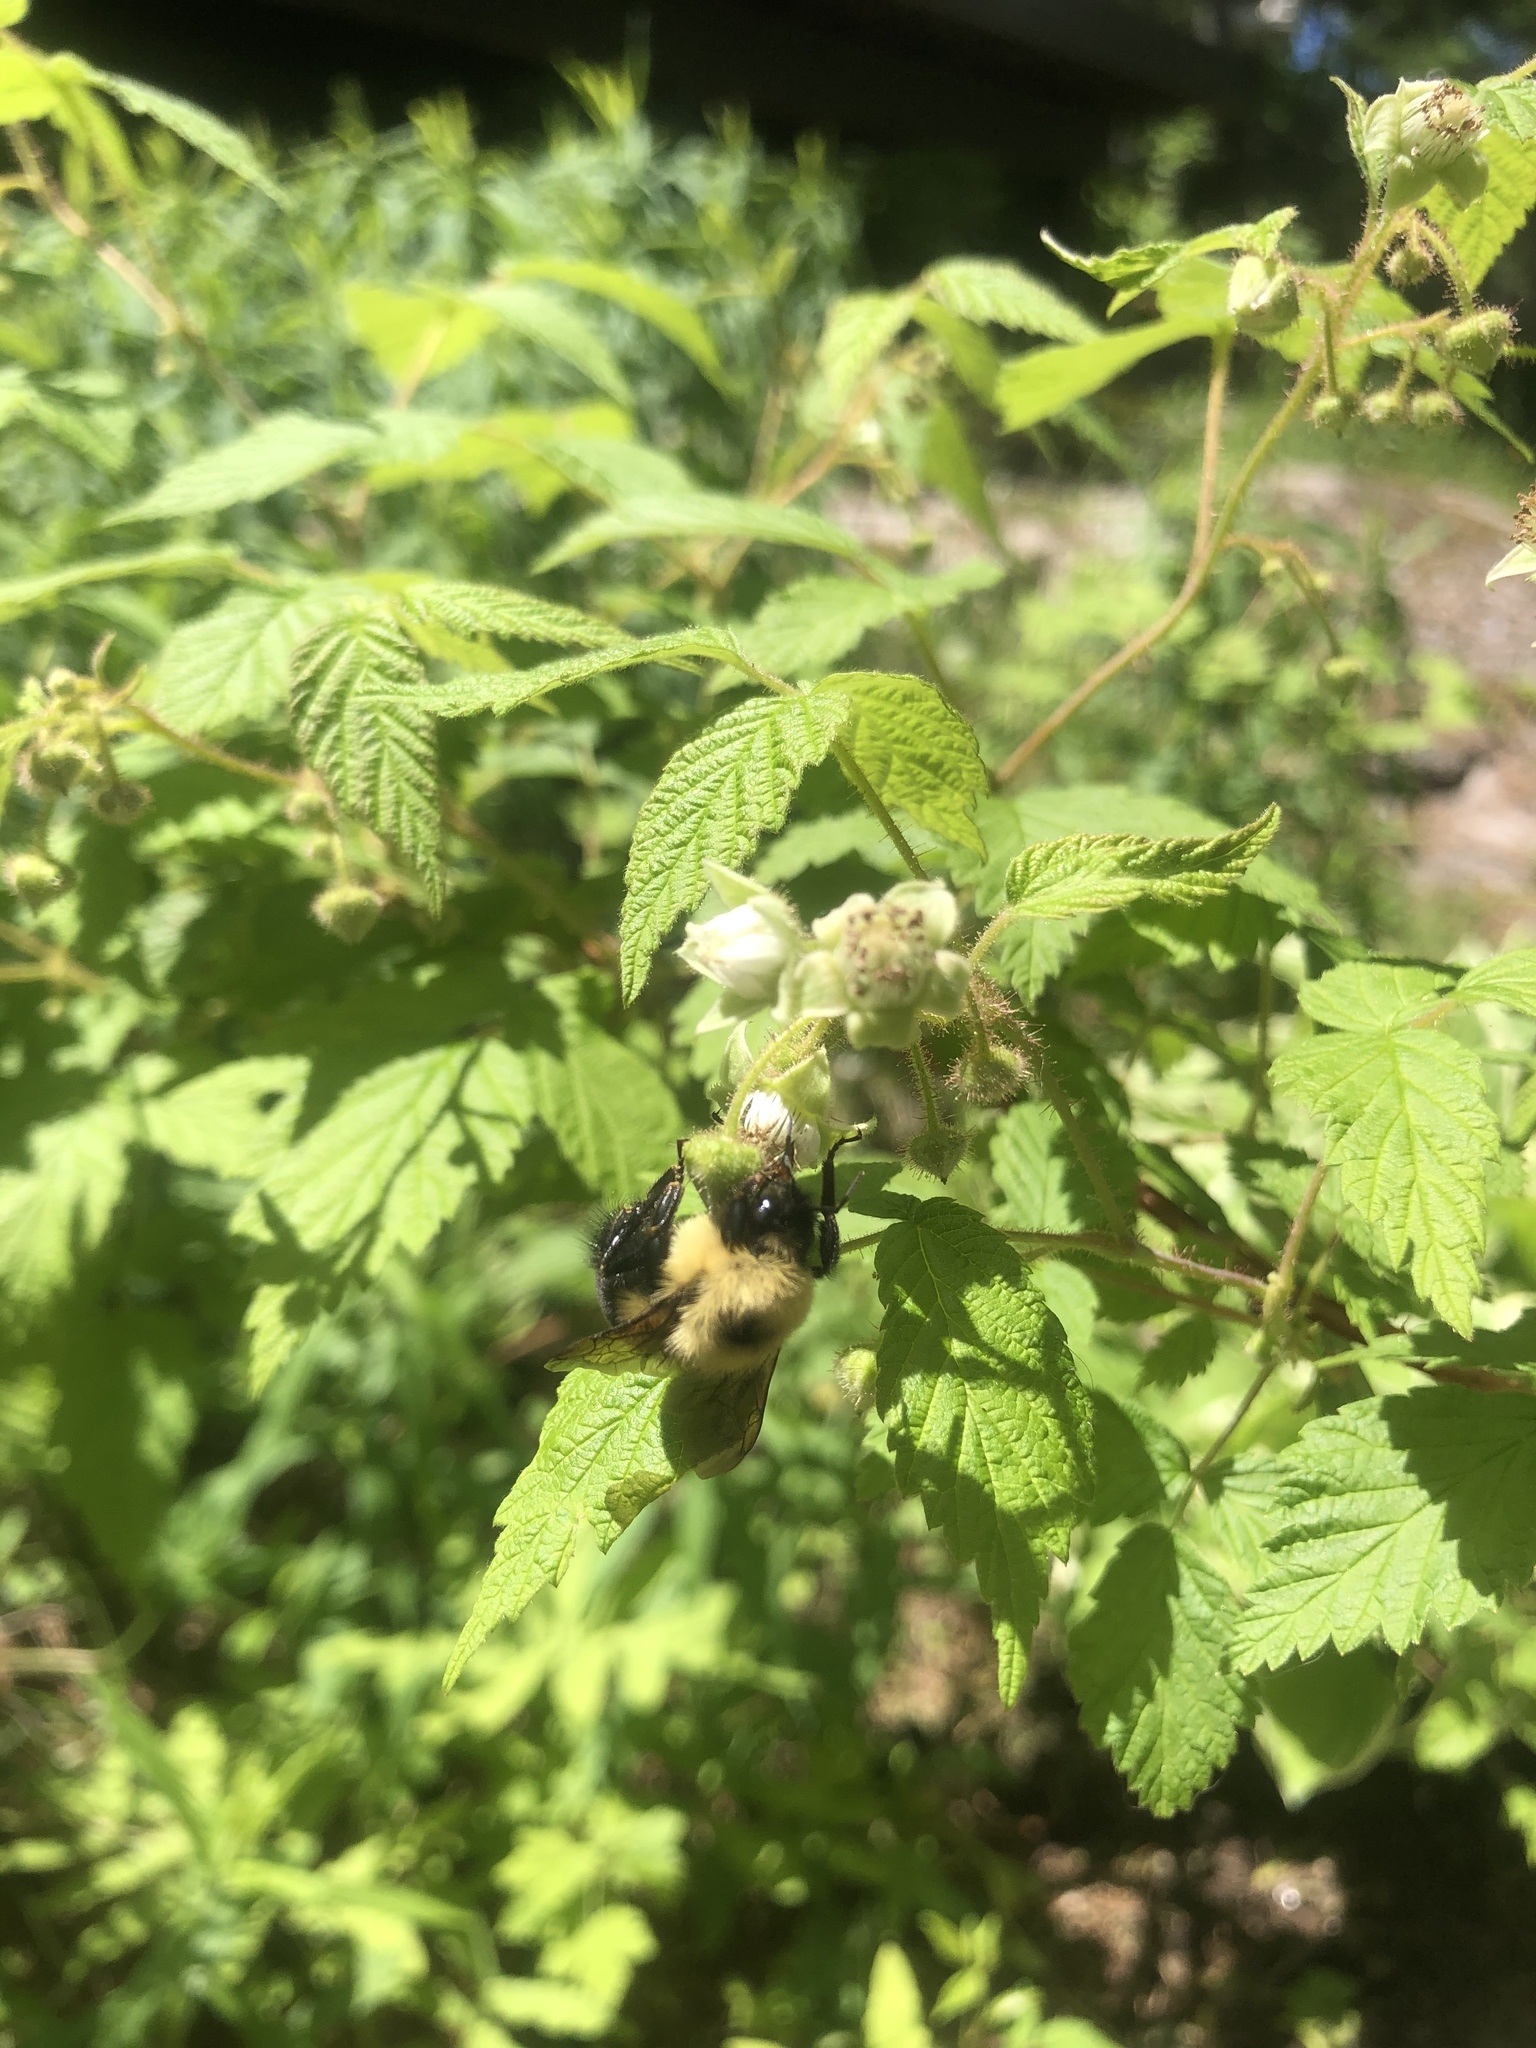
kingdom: Animalia
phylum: Arthropoda
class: Insecta
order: Hymenoptera
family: Apidae
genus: Bombus
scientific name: Bombus bimaculatus
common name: Two-spotted bumble bee
